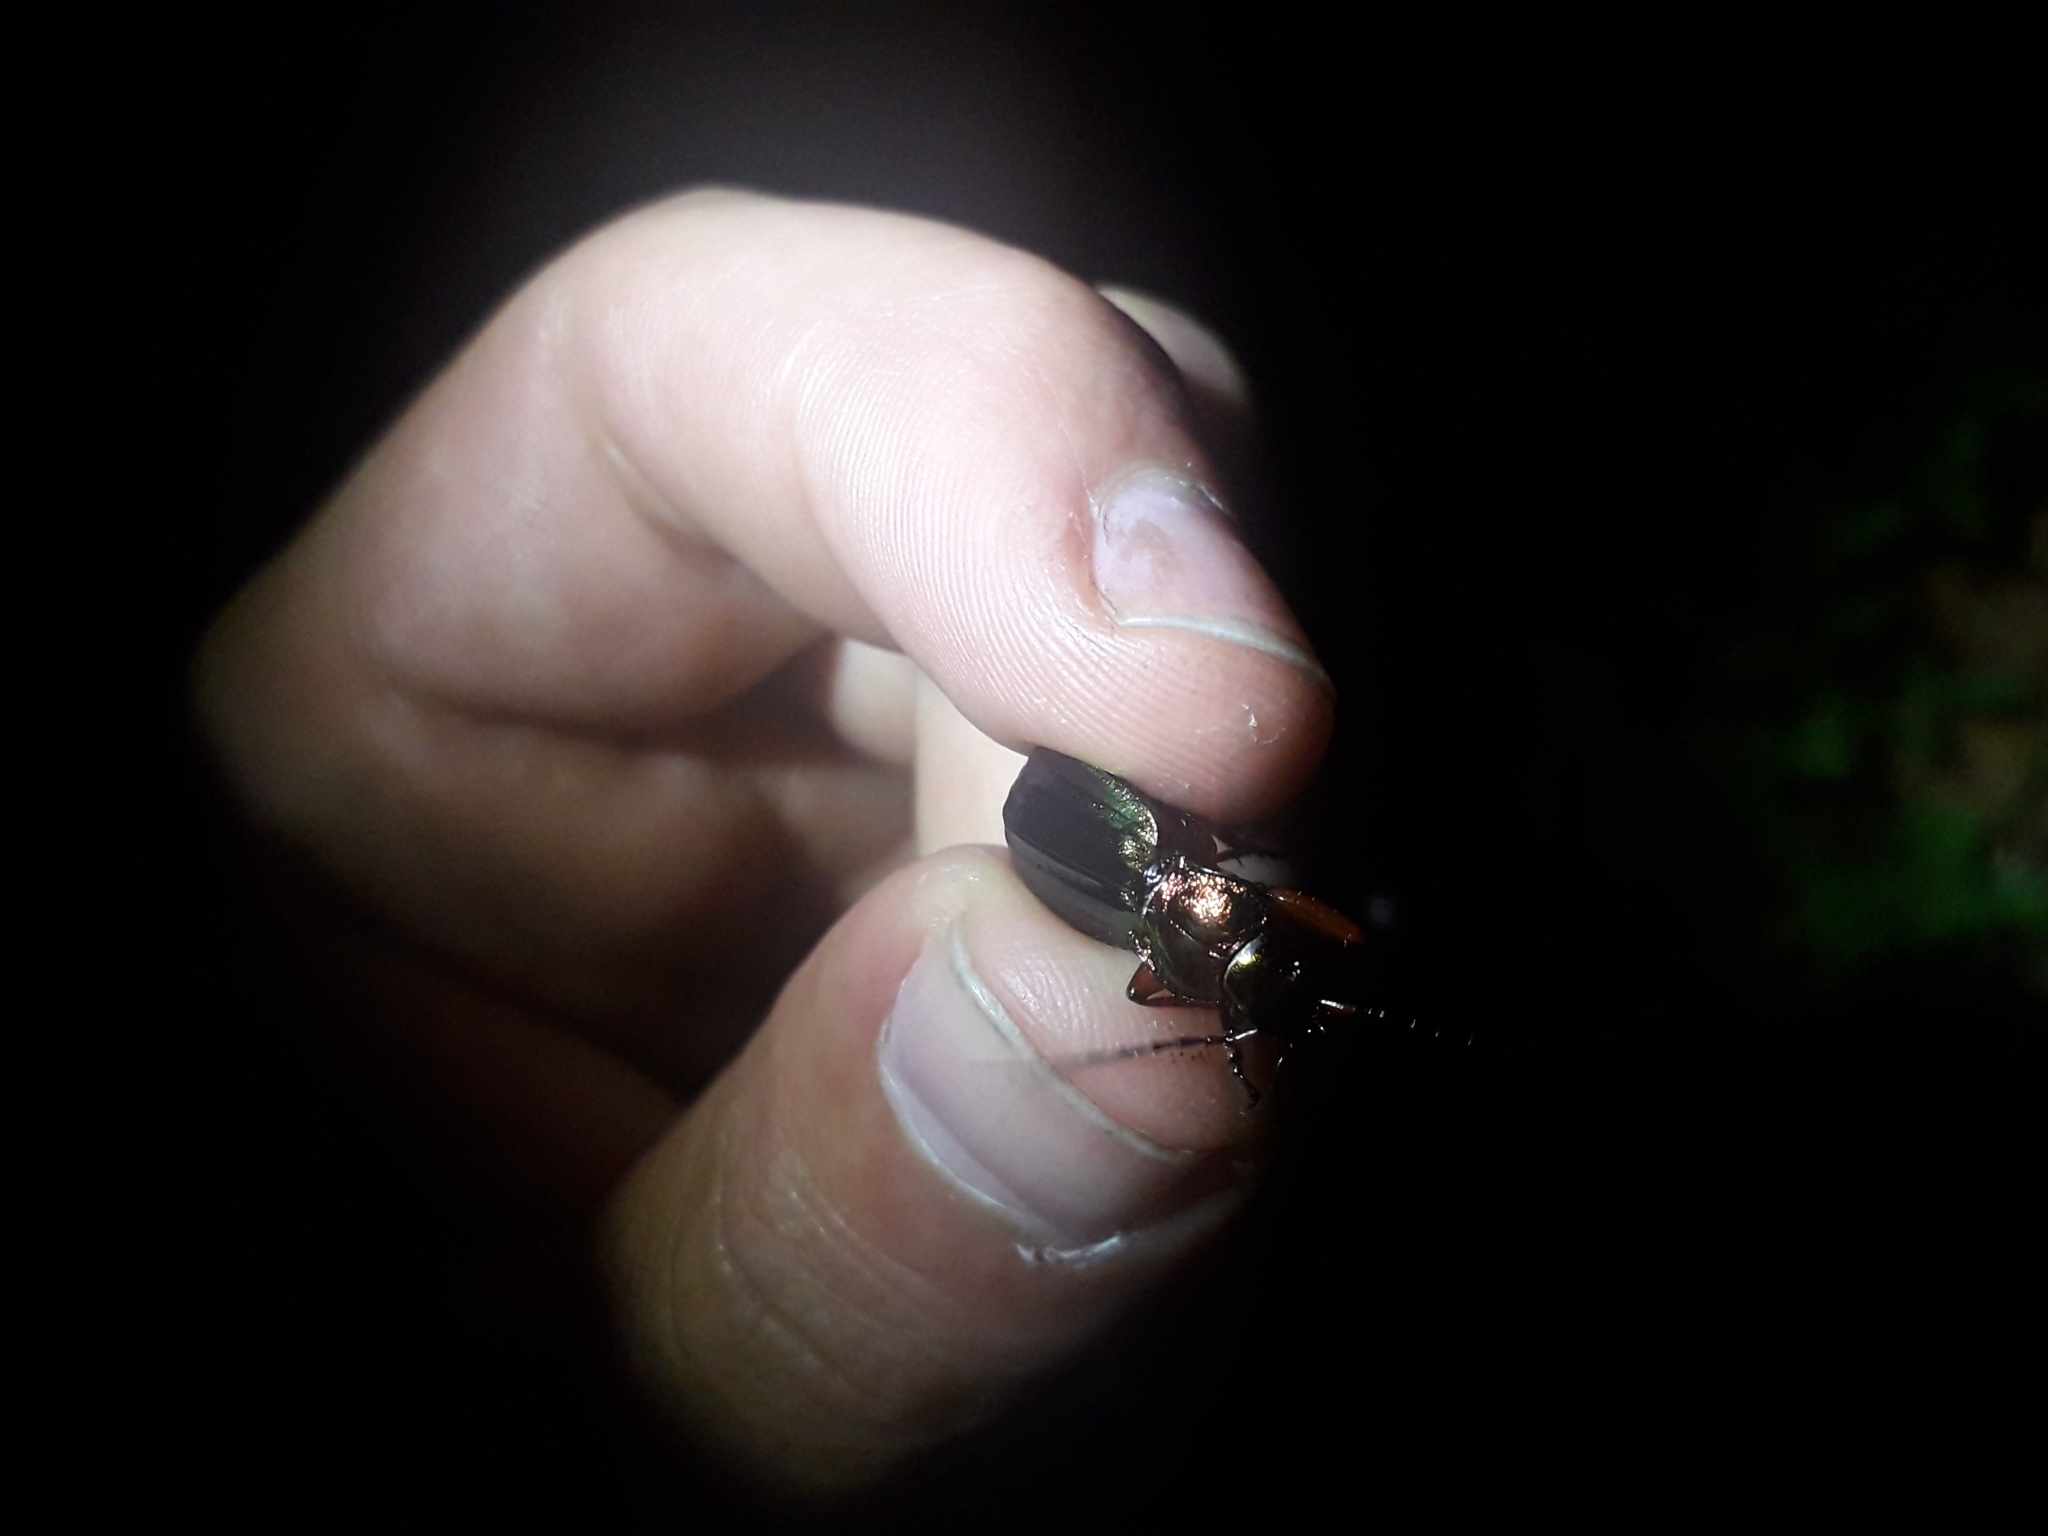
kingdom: Animalia
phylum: Arthropoda
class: Insecta
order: Coleoptera
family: Carabidae
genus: Carabus
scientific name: Carabus auronitens
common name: Carabus auronitens
